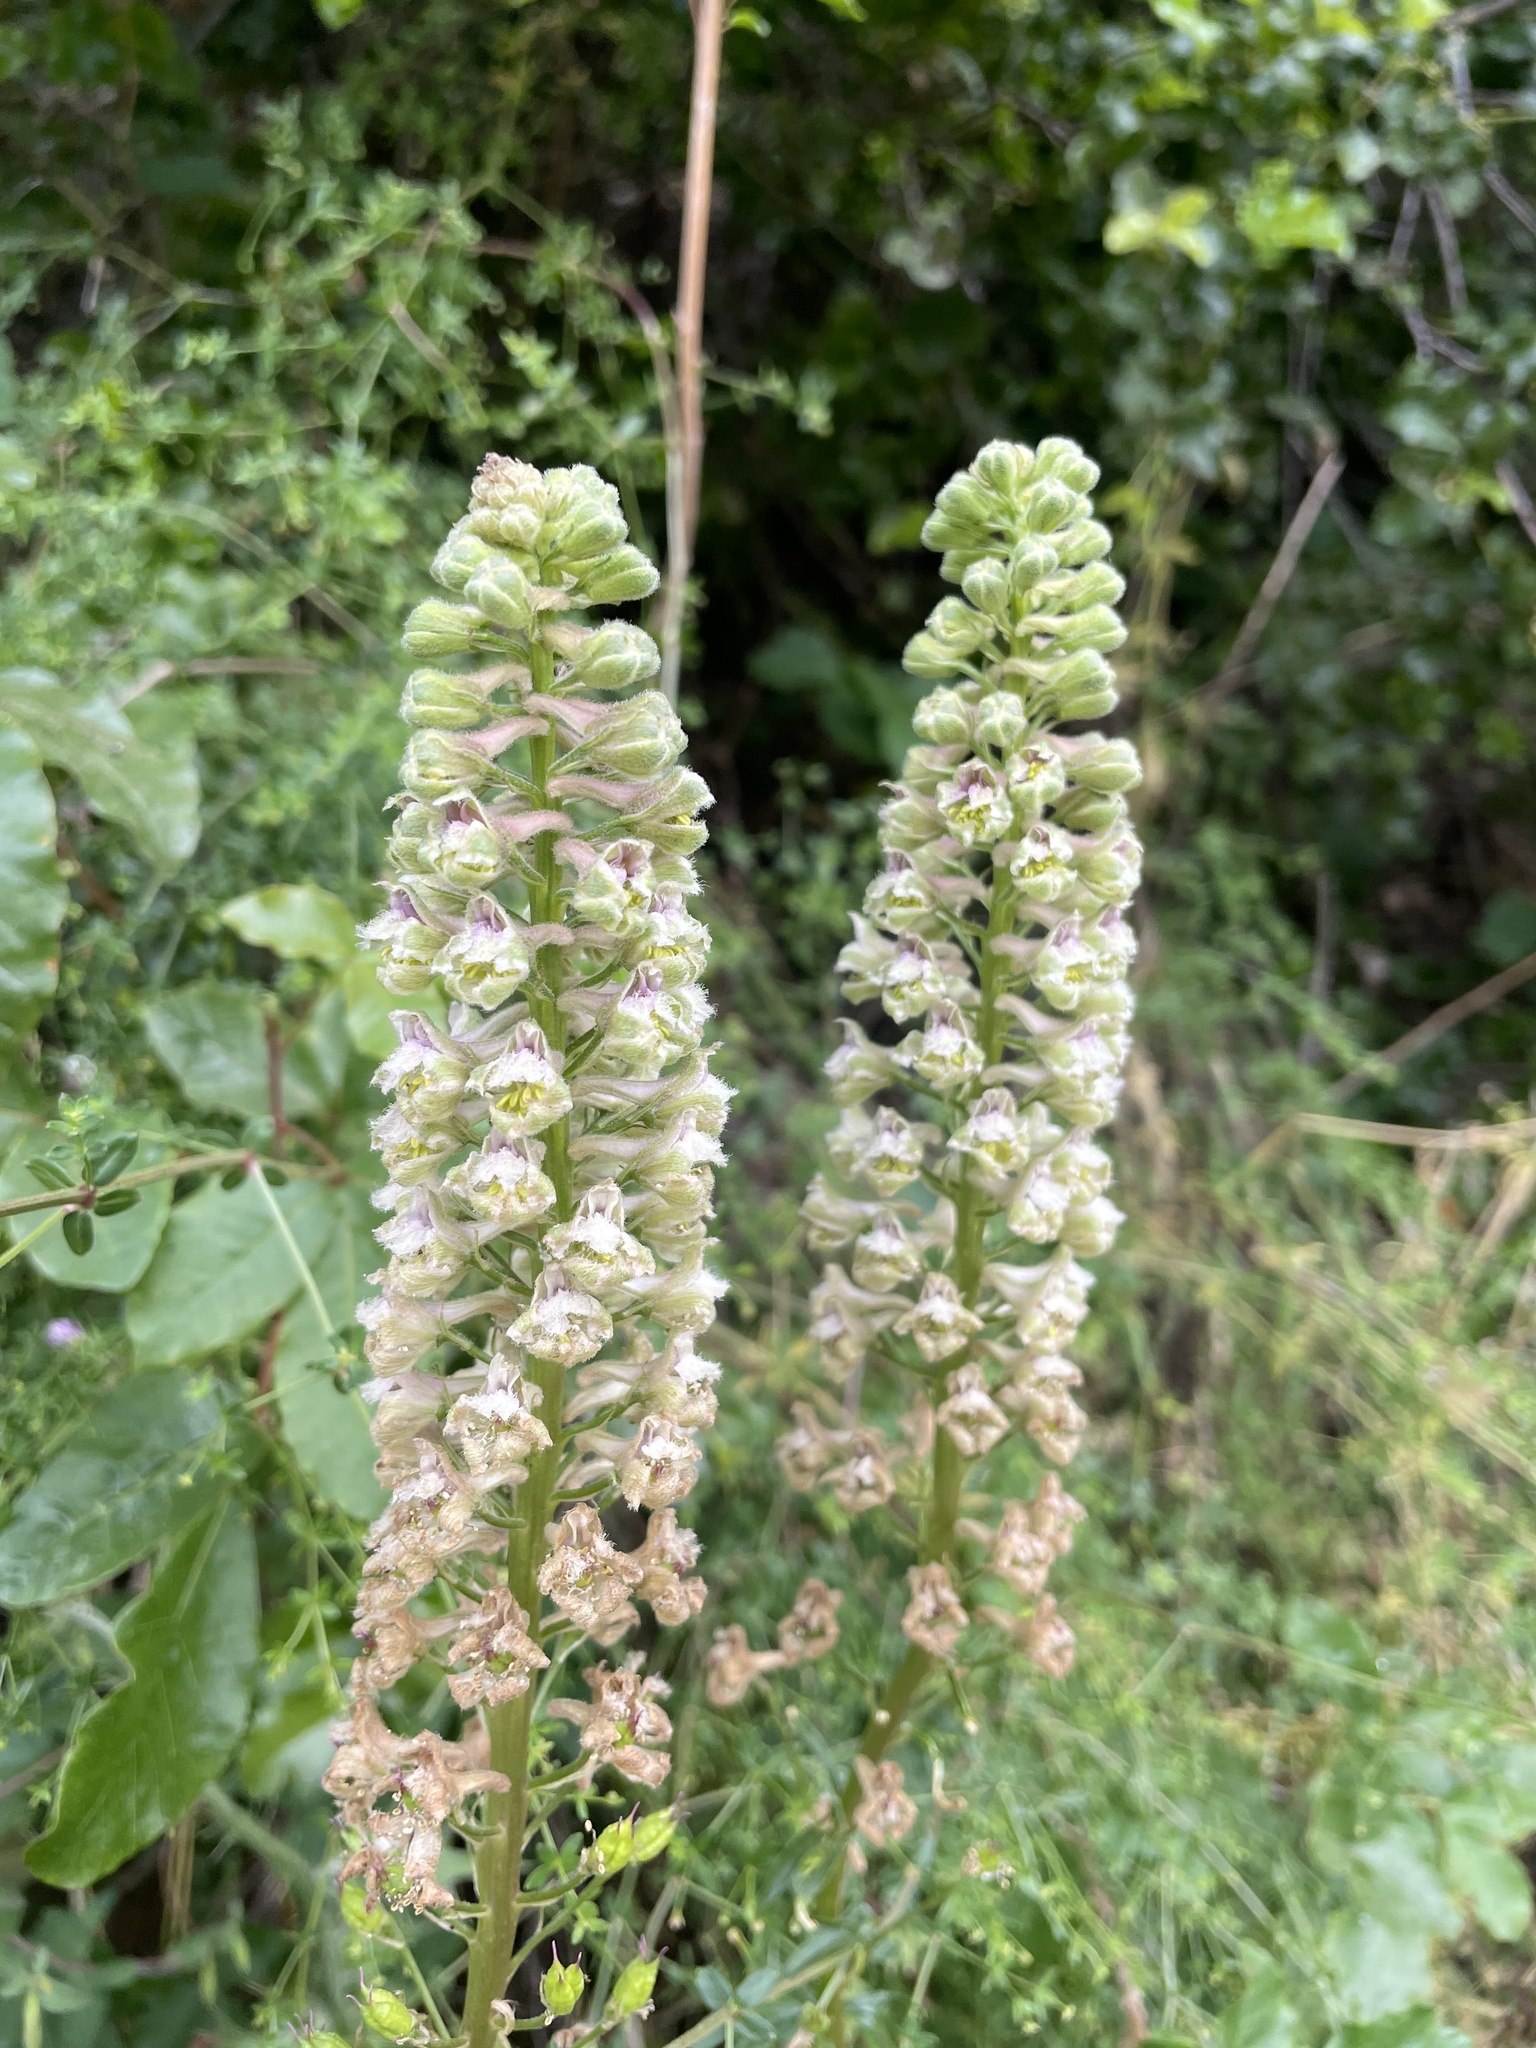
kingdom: Plantae
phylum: Tracheophyta
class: Magnoliopsida
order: Ranunculales
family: Ranunculaceae
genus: Delphinium
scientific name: Delphinium californicum
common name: California larkspur
